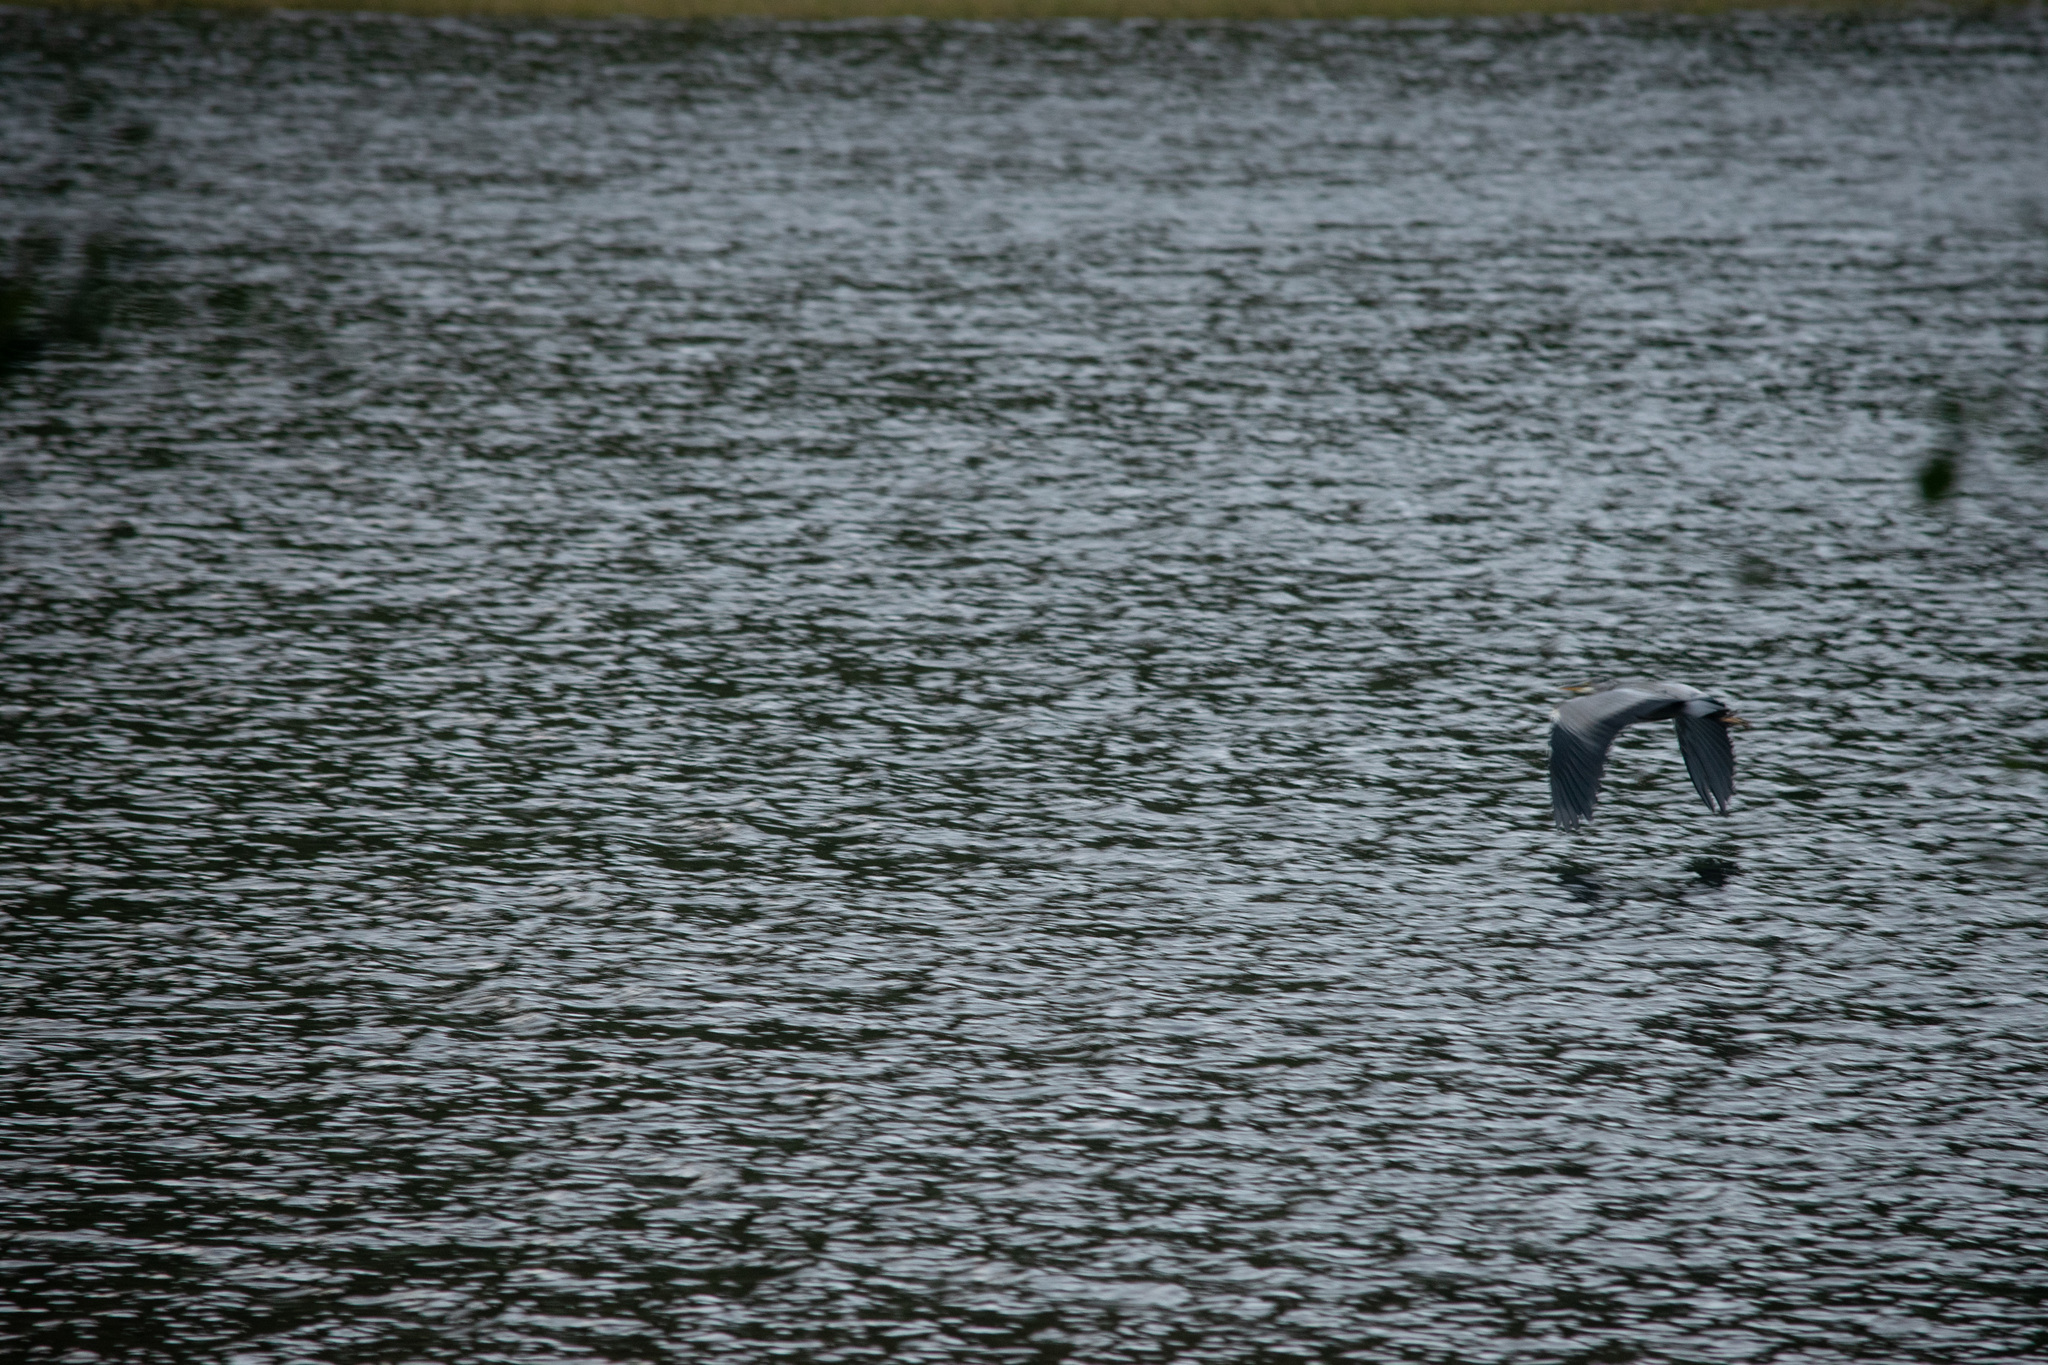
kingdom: Animalia
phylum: Chordata
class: Aves
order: Pelecaniformes
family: Ardeidae
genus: Ardea
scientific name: Ardea cinerea
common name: Grey heron
